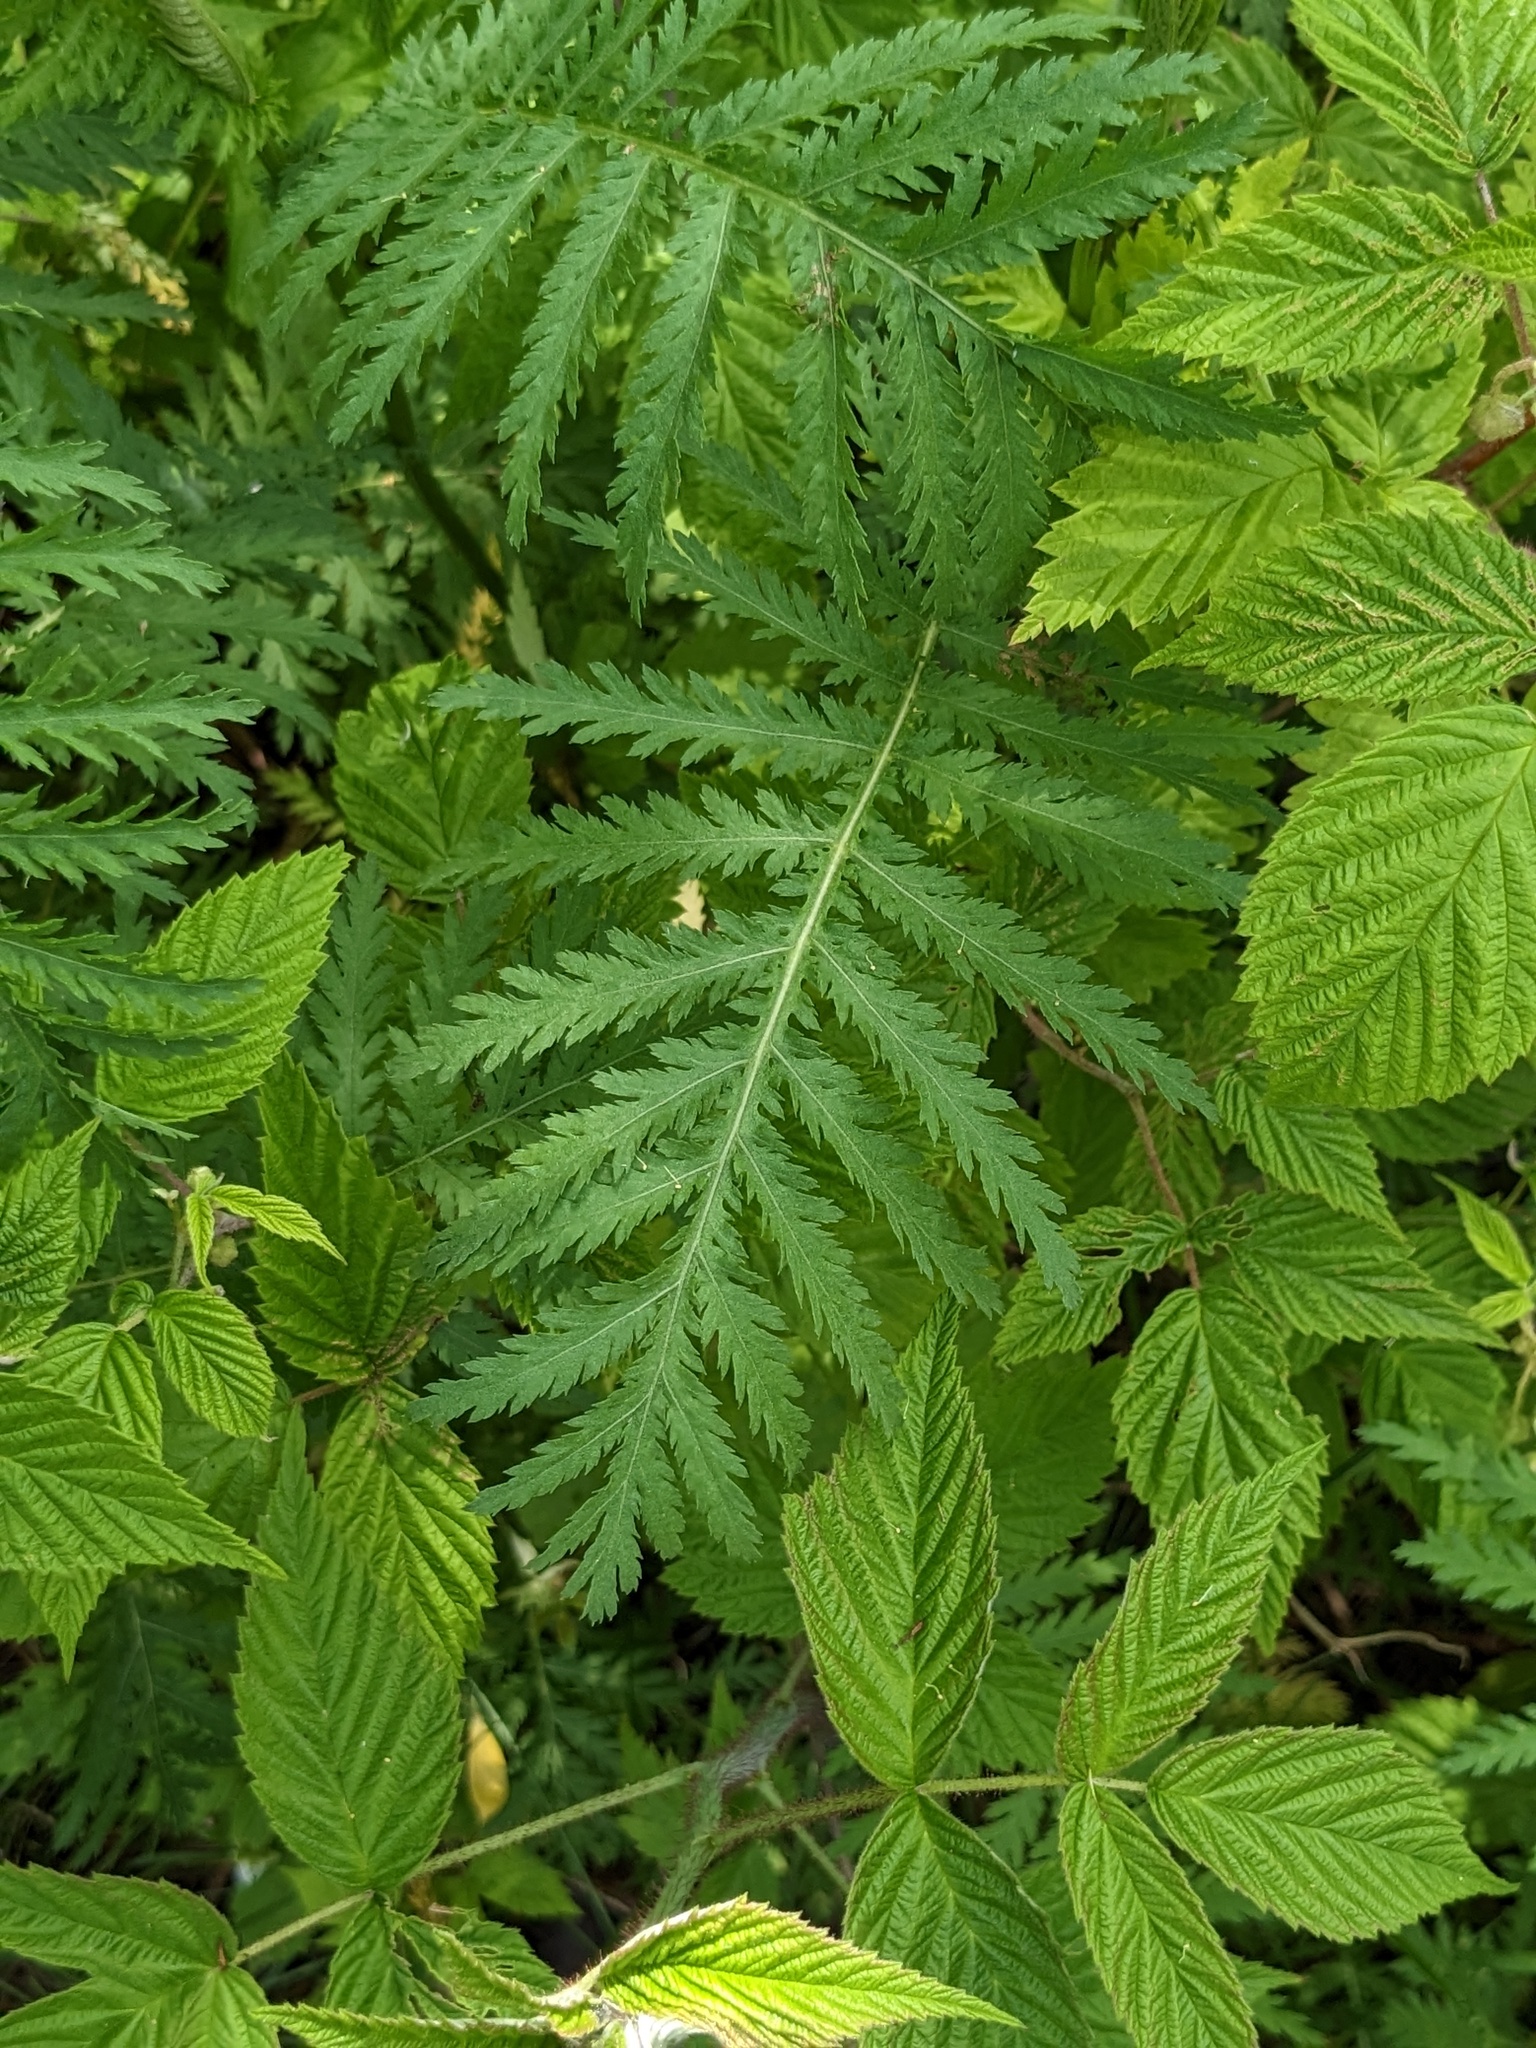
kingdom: Plantae
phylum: Tracheophyta
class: Magnoliopsida
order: Asterales
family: Asteraceae
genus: Tanacetum
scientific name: Tanacetum vulgare
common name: Common tansy
